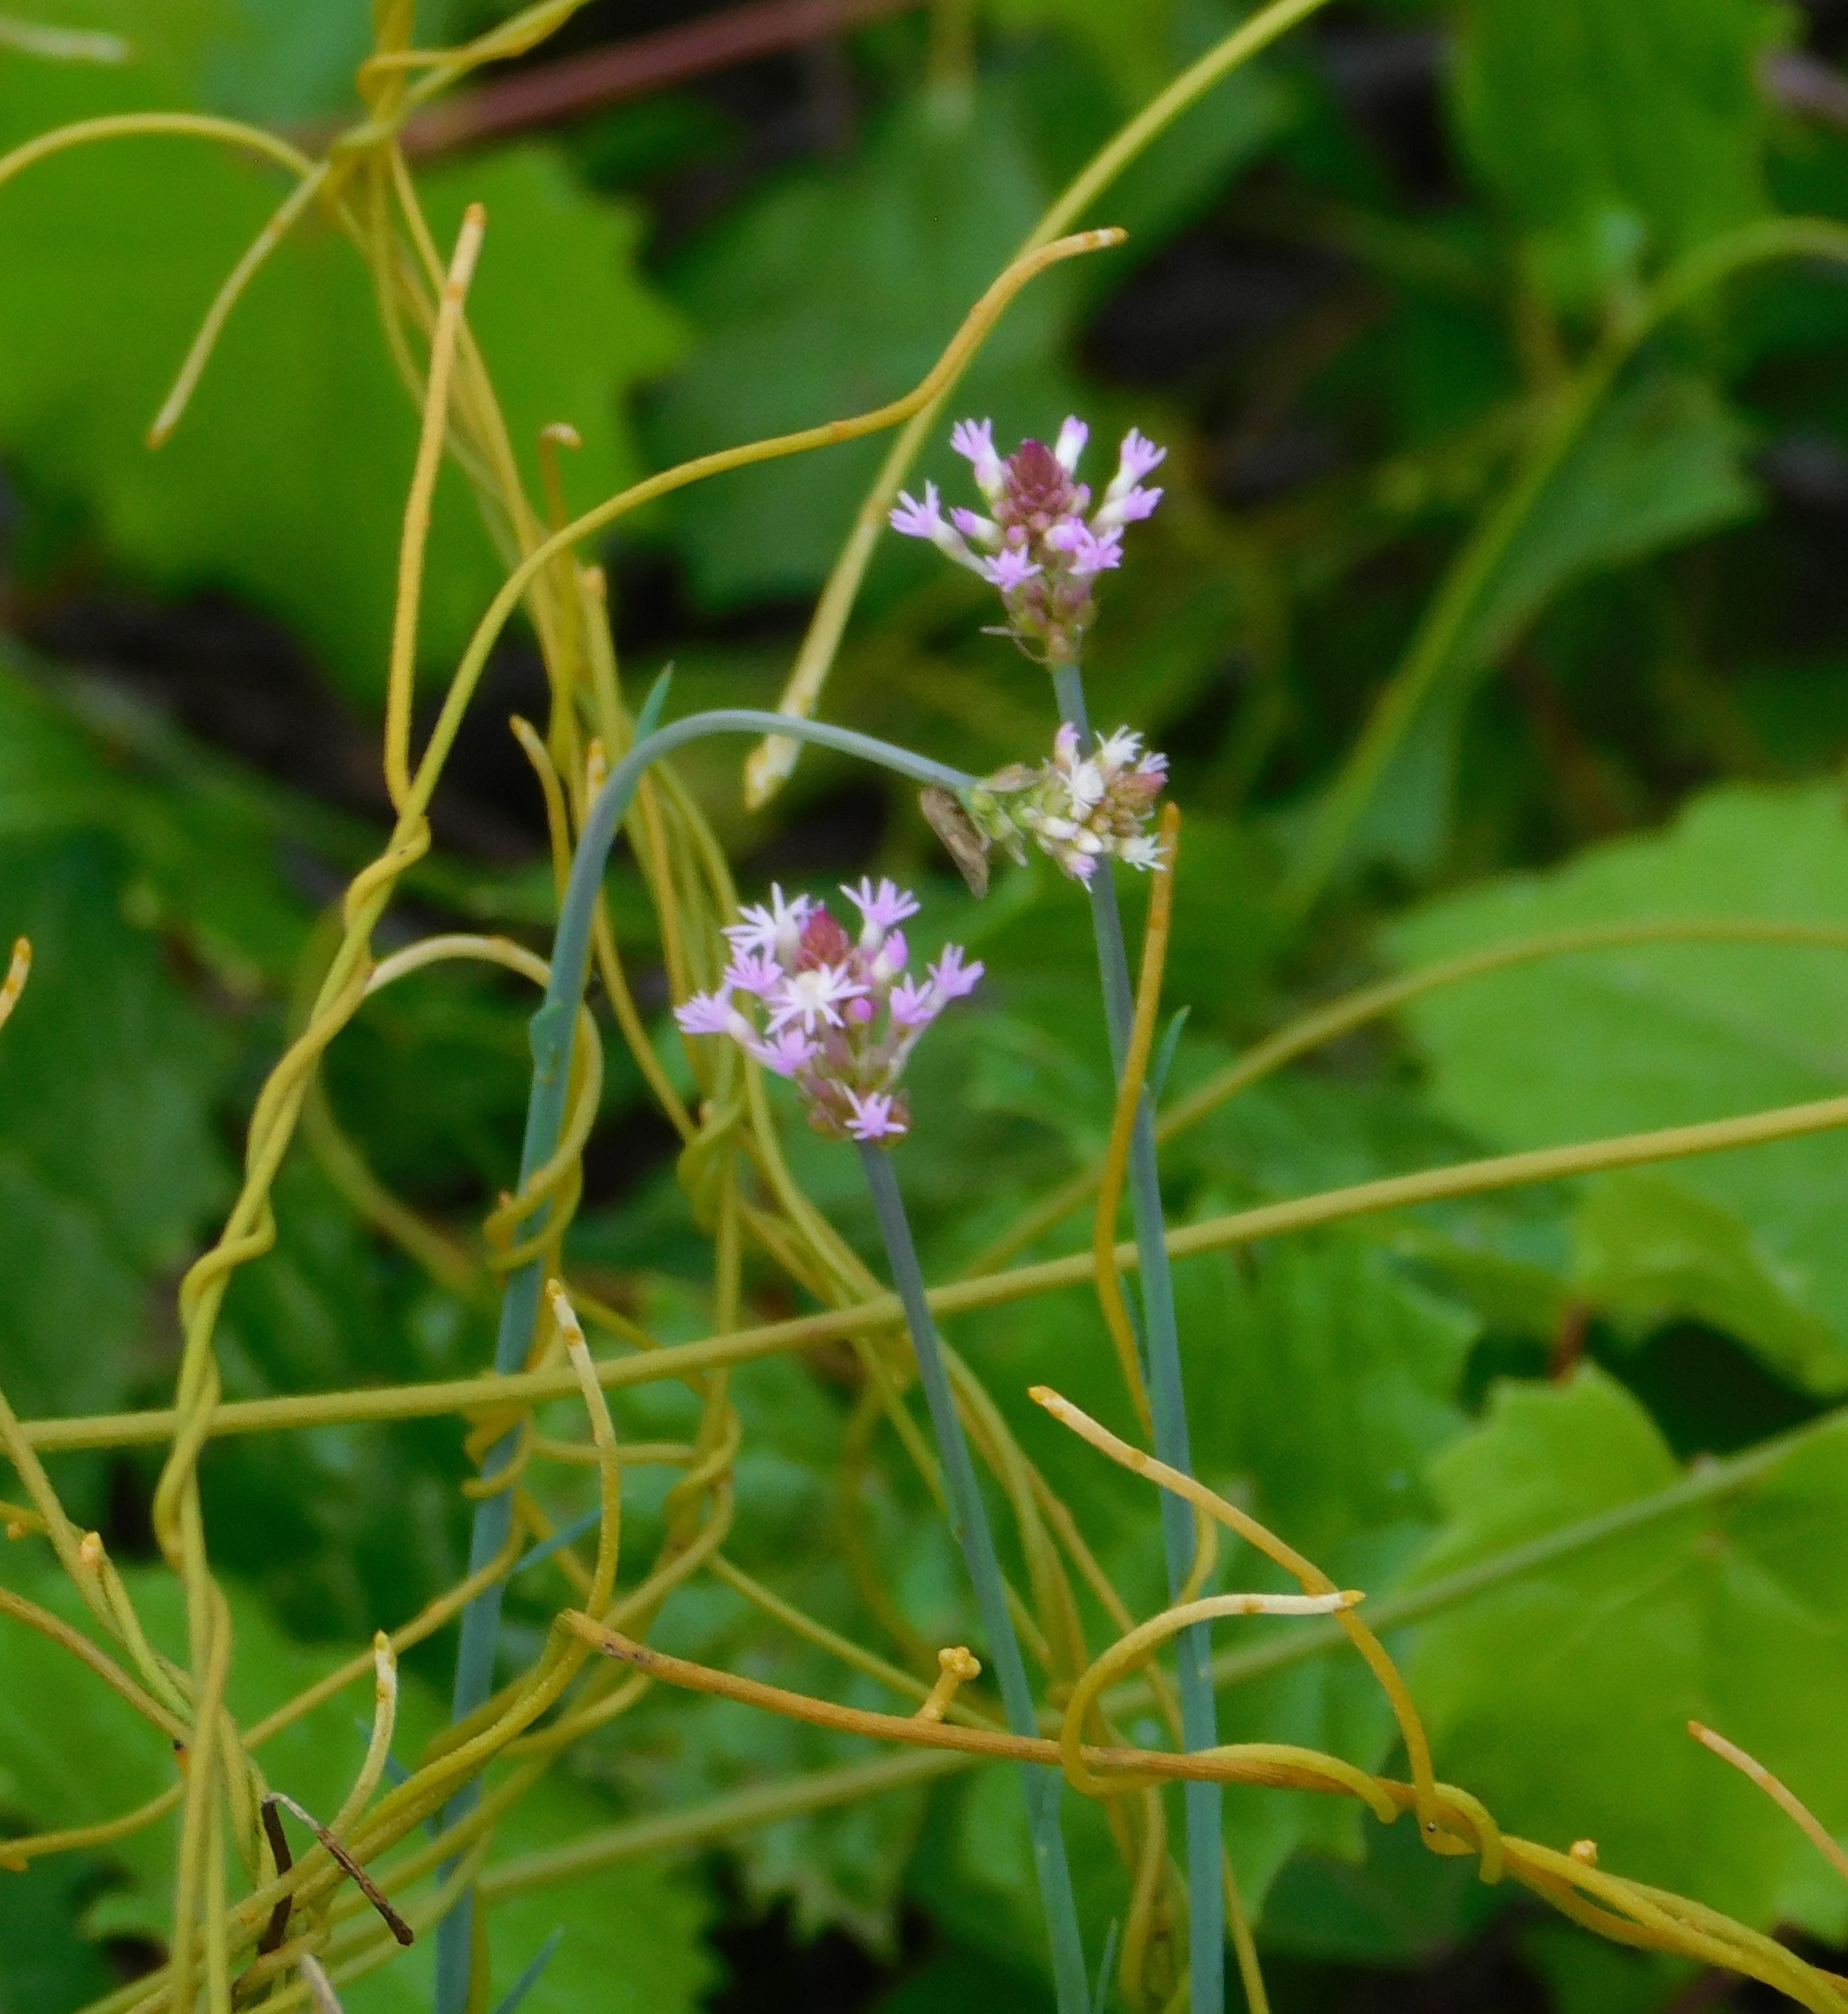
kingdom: Plantae
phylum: Tracheophyta
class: Magnoliopsida
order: Fabales
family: Polygalaceae
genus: Polygala
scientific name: Polygala incarnata
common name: Pink milkwort
